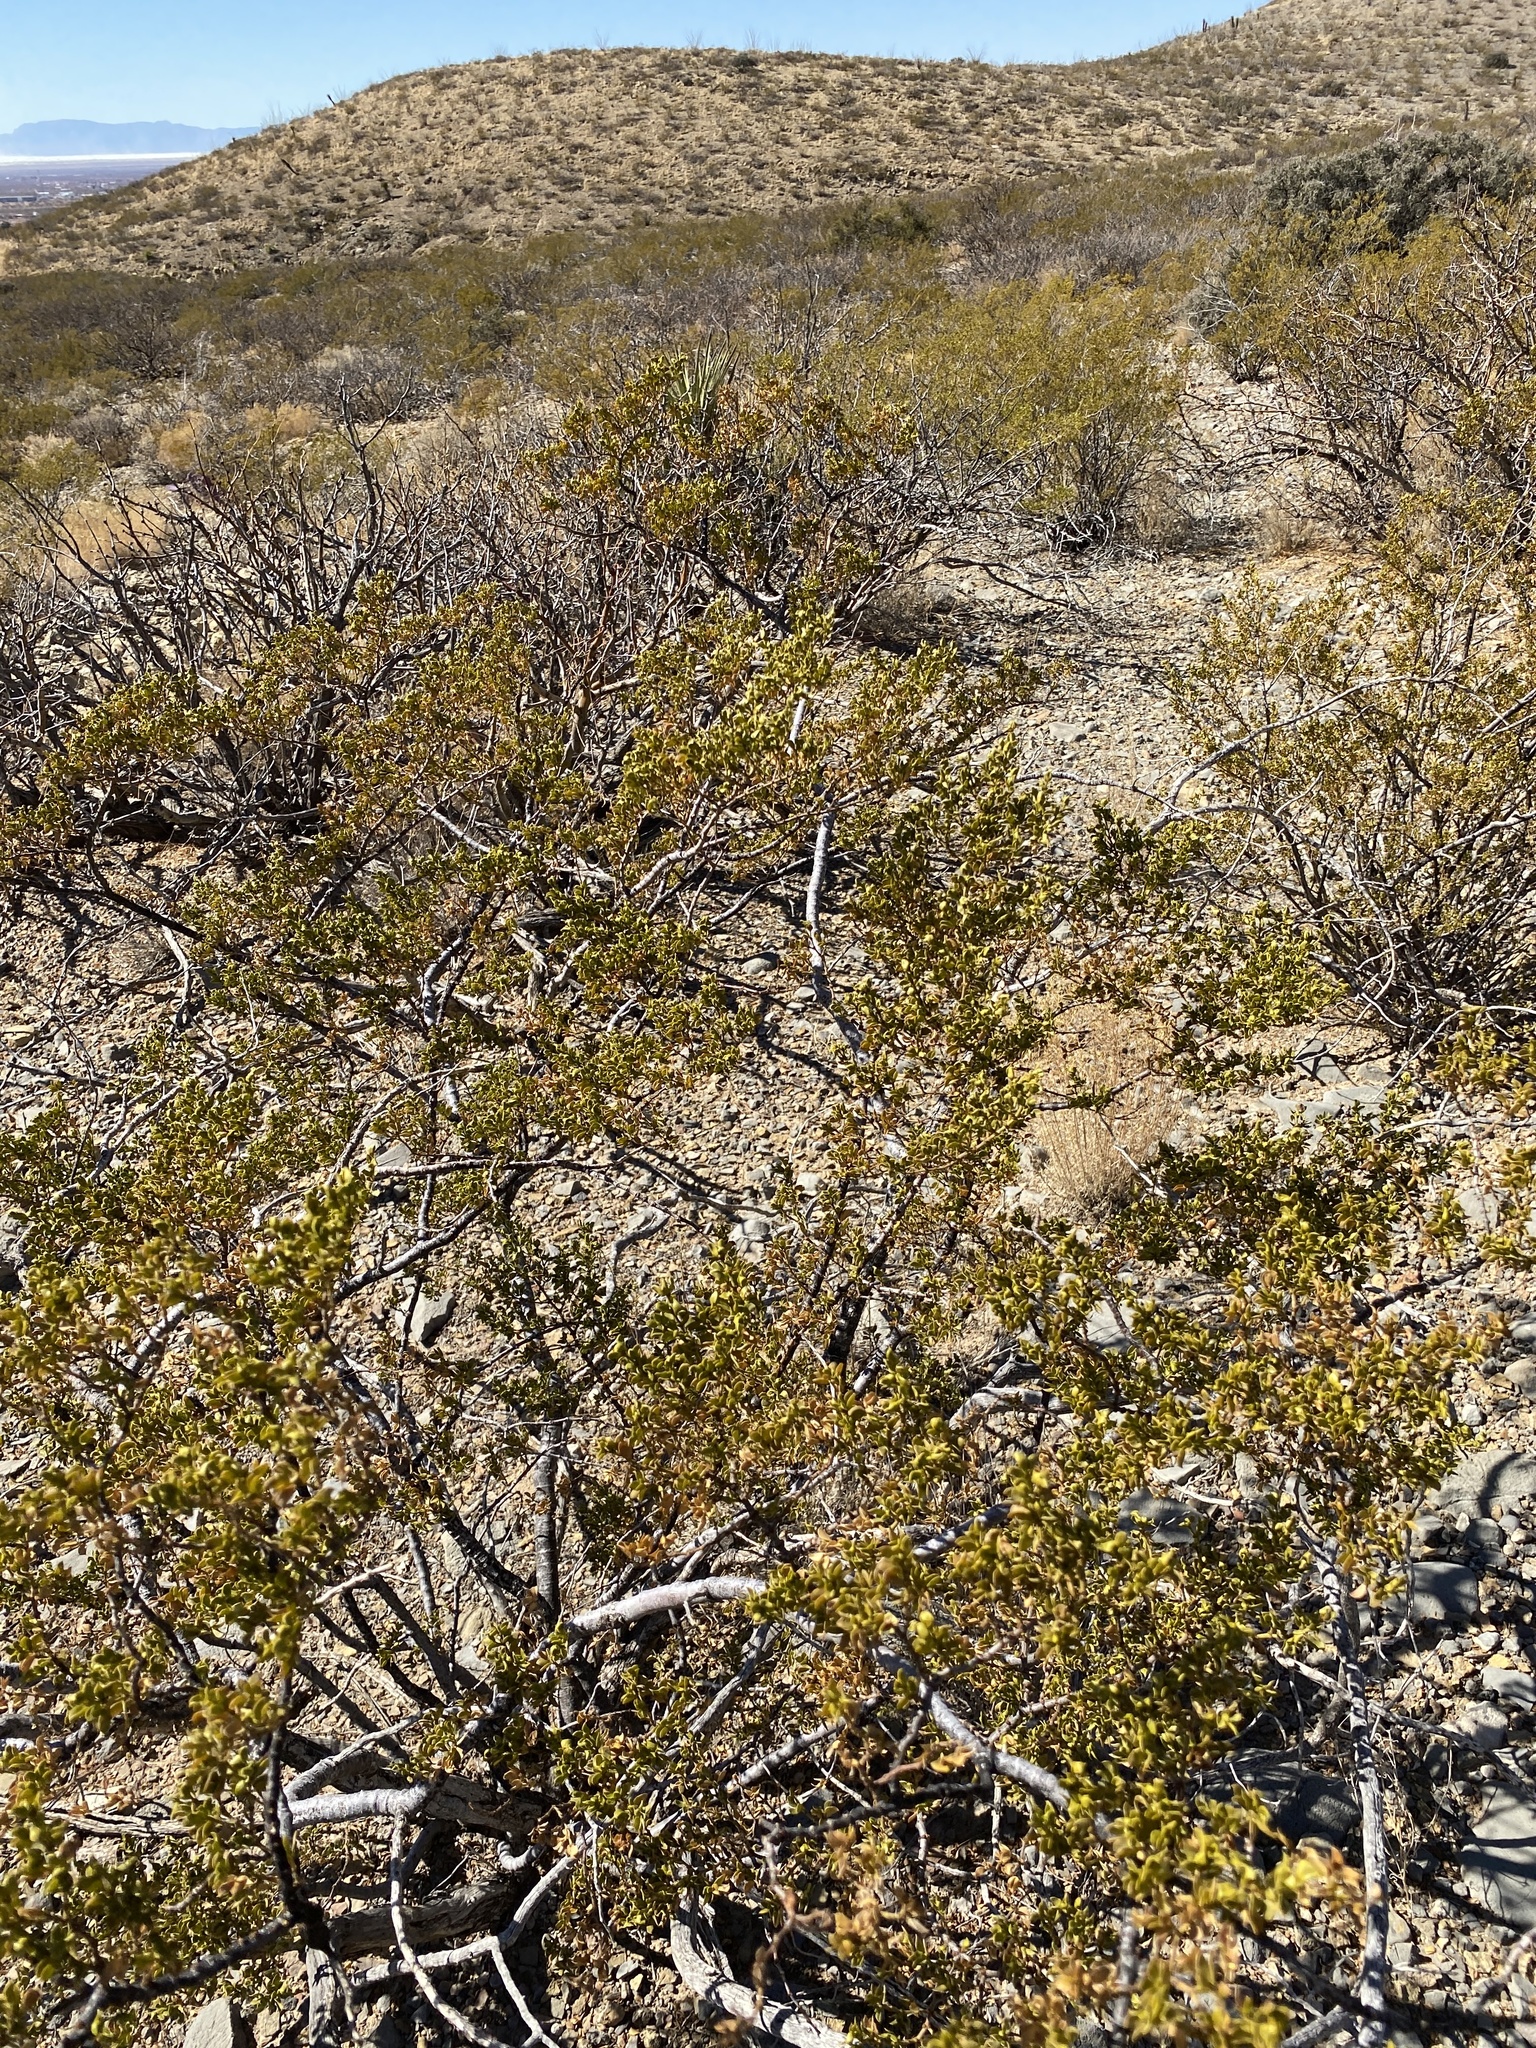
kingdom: Plantae
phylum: Tracheophyta
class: Magnoliopsida
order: Zygophyllales
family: Zygophyllaceae
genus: Larrea
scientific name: Larrea tridentata
